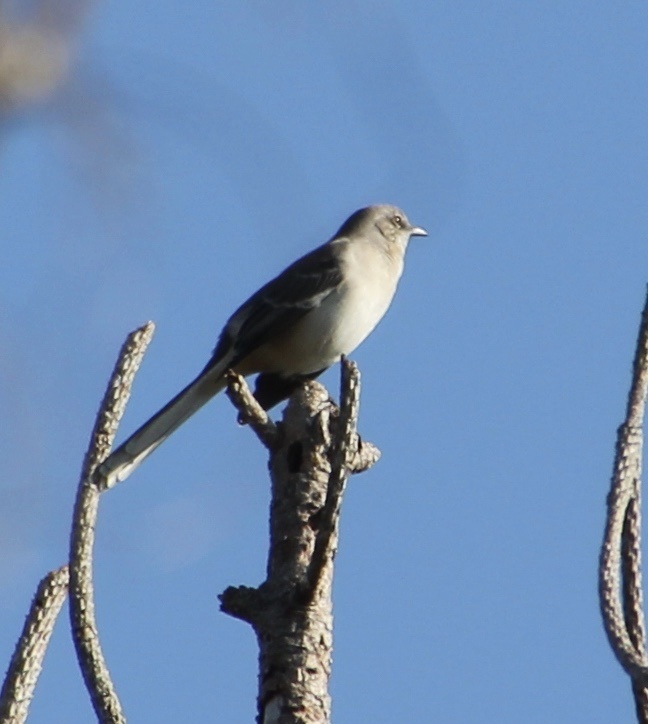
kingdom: Animalia
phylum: Chordata
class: Aves
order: Passeriformes
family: Mimidae
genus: Mimus
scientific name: Mimus polyglottos
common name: Northern mockingbird
